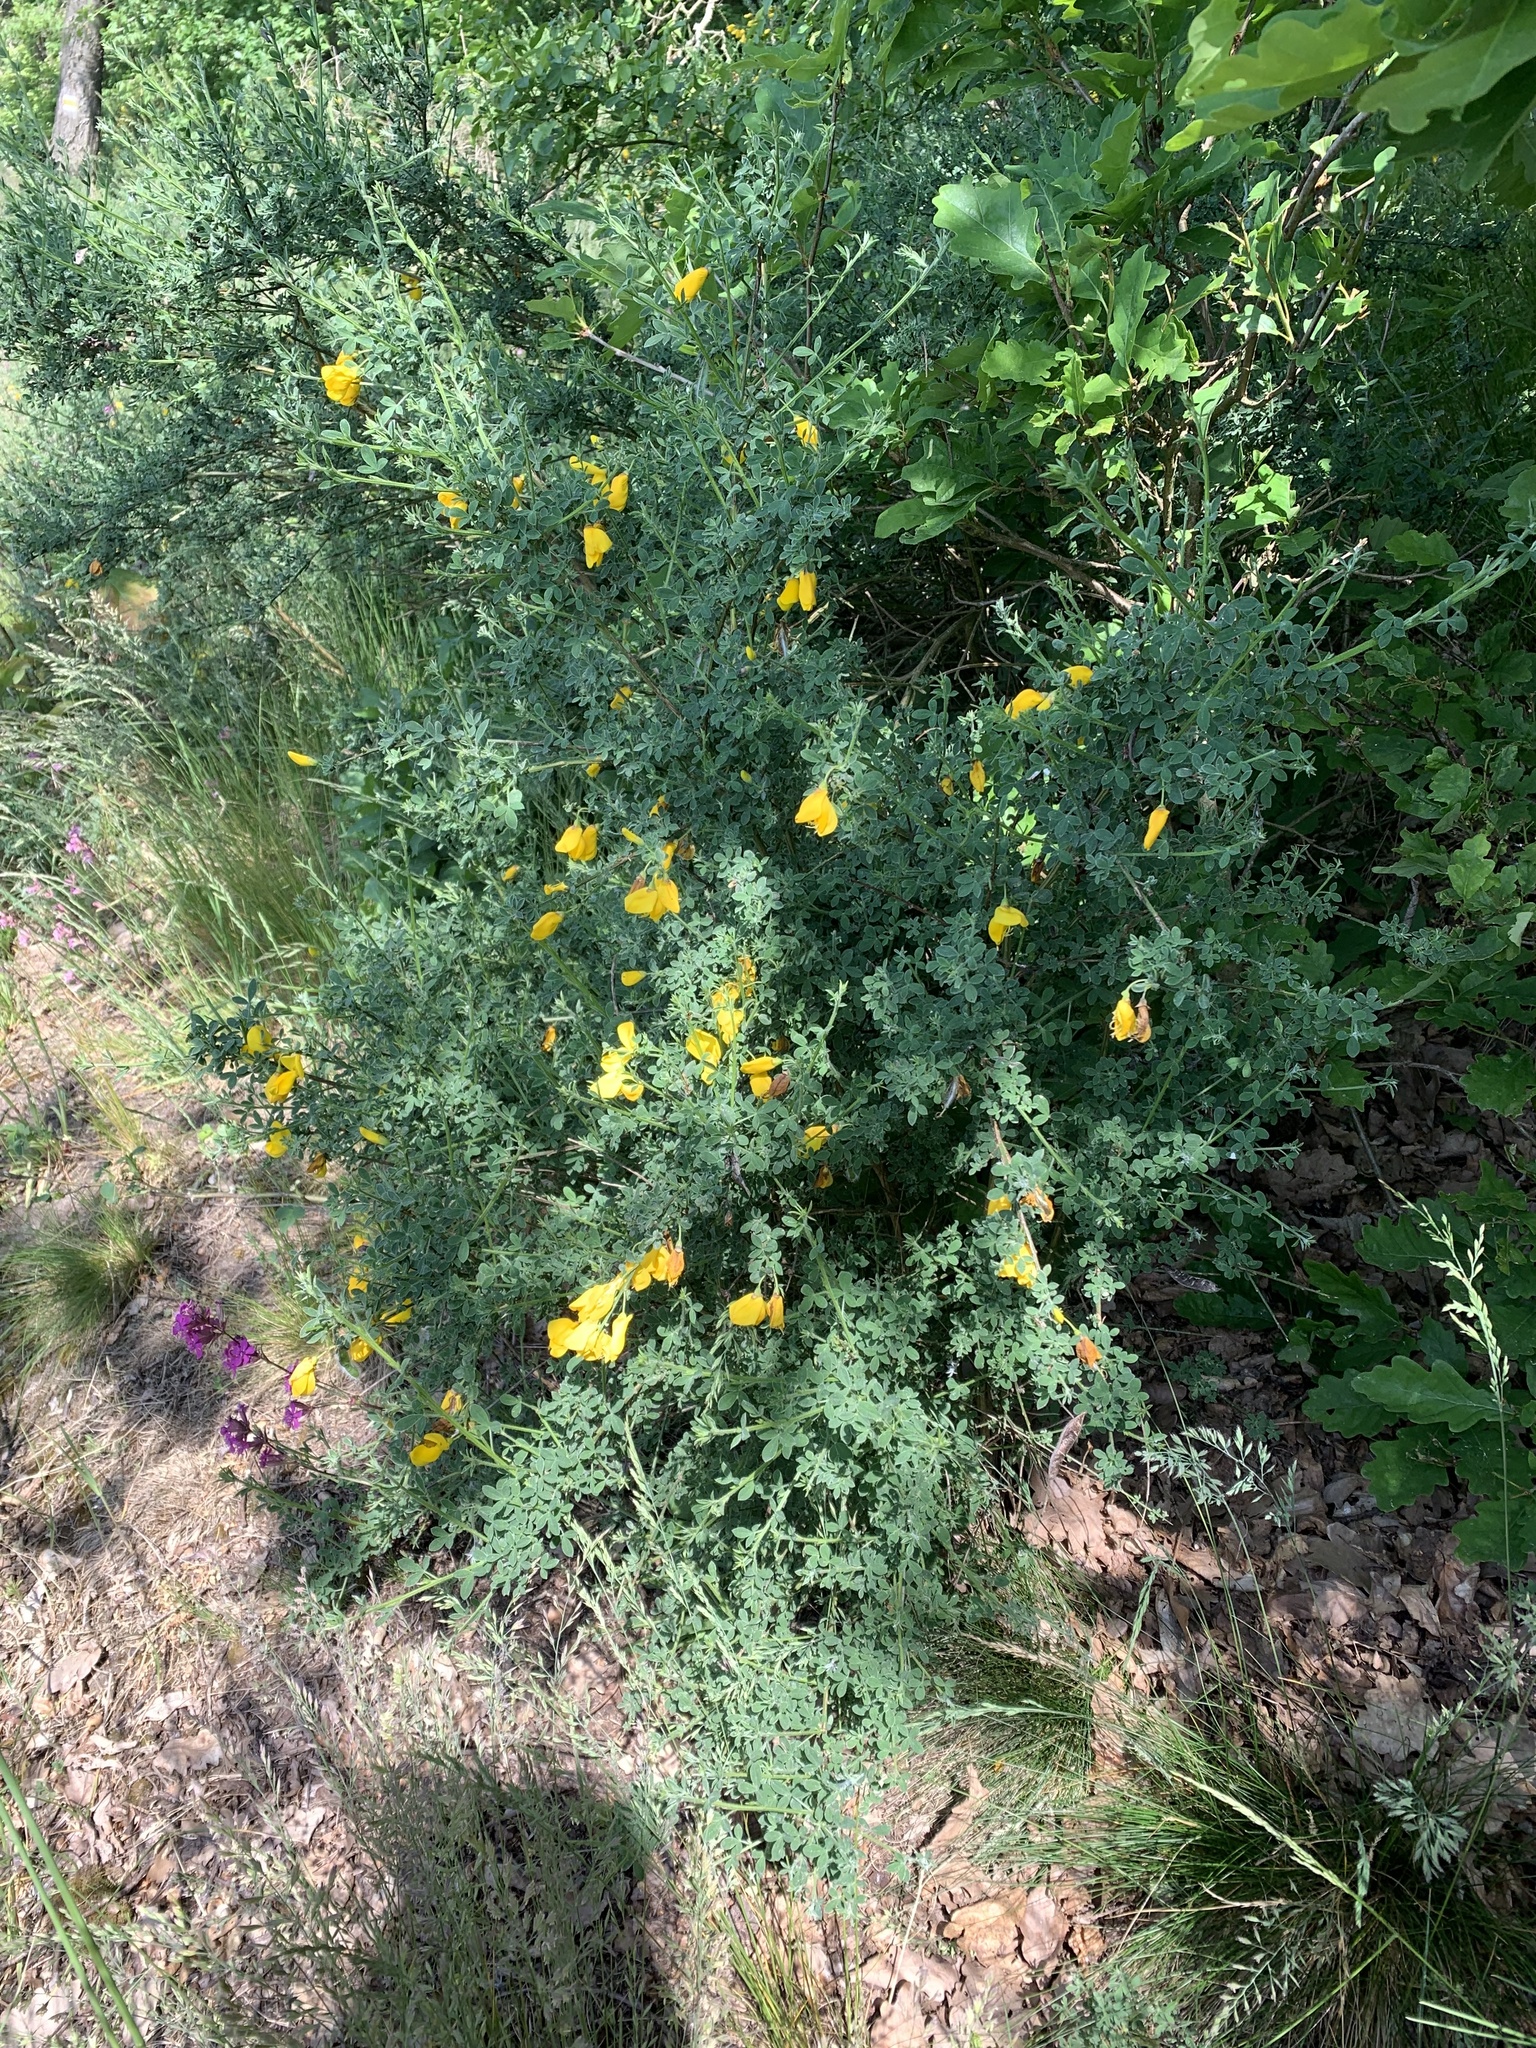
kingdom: Plantae
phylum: Tracheophyta
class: Magnoliopsida
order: Fabales
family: Fabaceae
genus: Cytisus
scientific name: Cytisus scoparius
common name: Scotch broom
